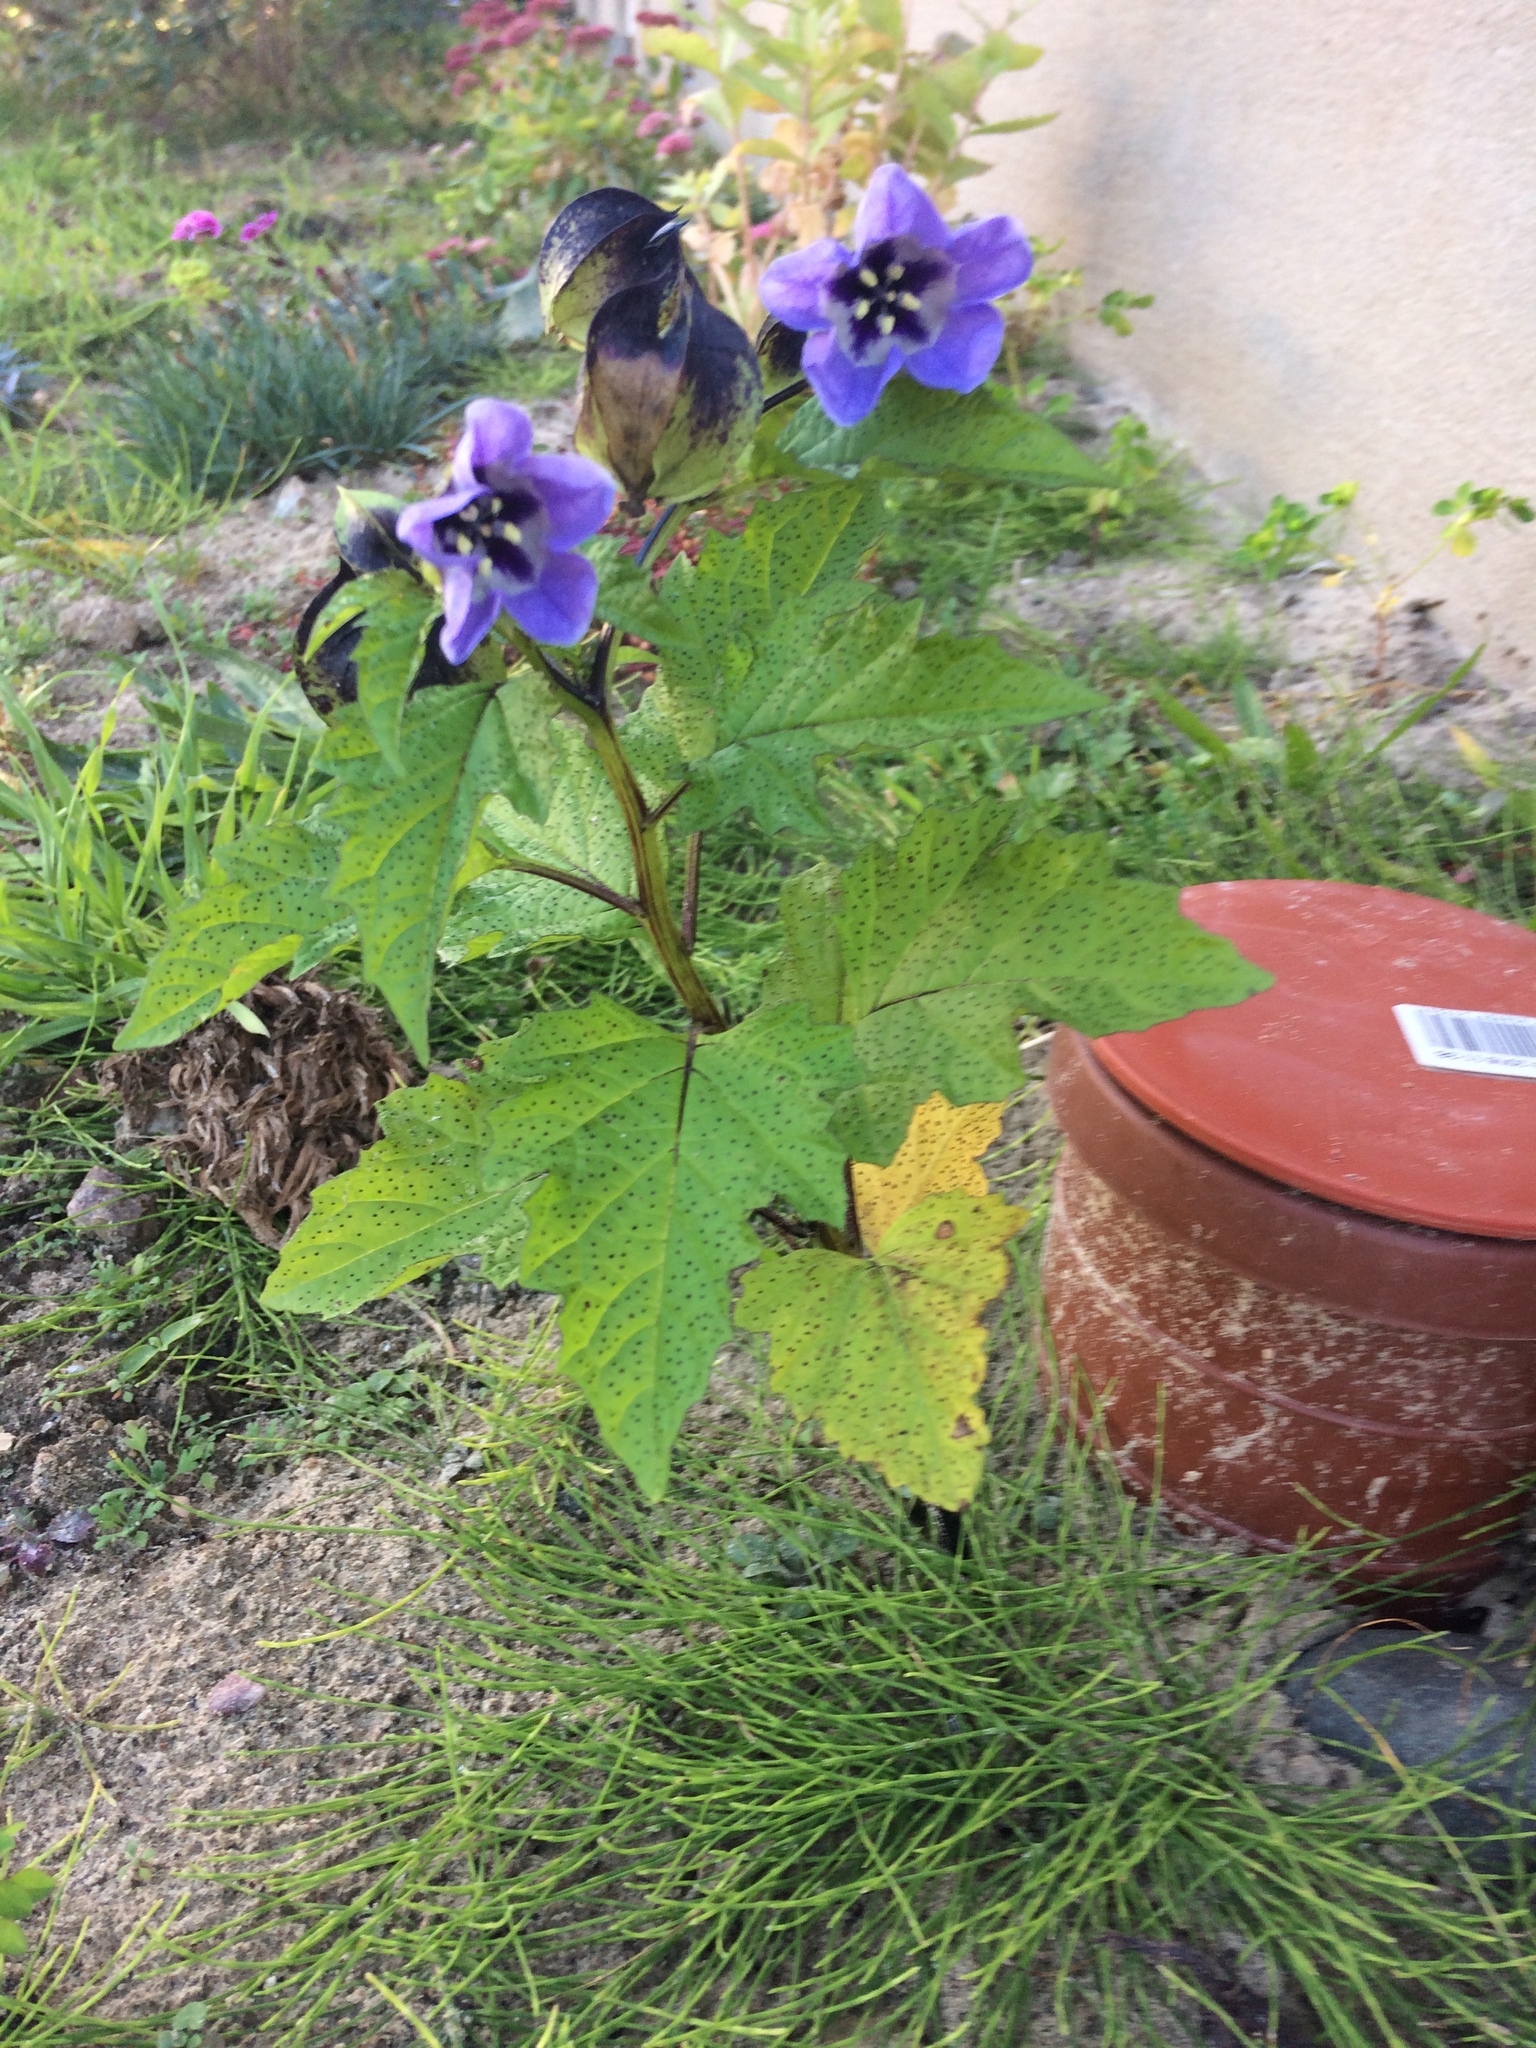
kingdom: Plantae
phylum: Tracheophyta
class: Magnoliopsida
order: Solanales
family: Solanaceae
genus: Nicandra
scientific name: Nicandra physalodes
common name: Apple-of-peru
